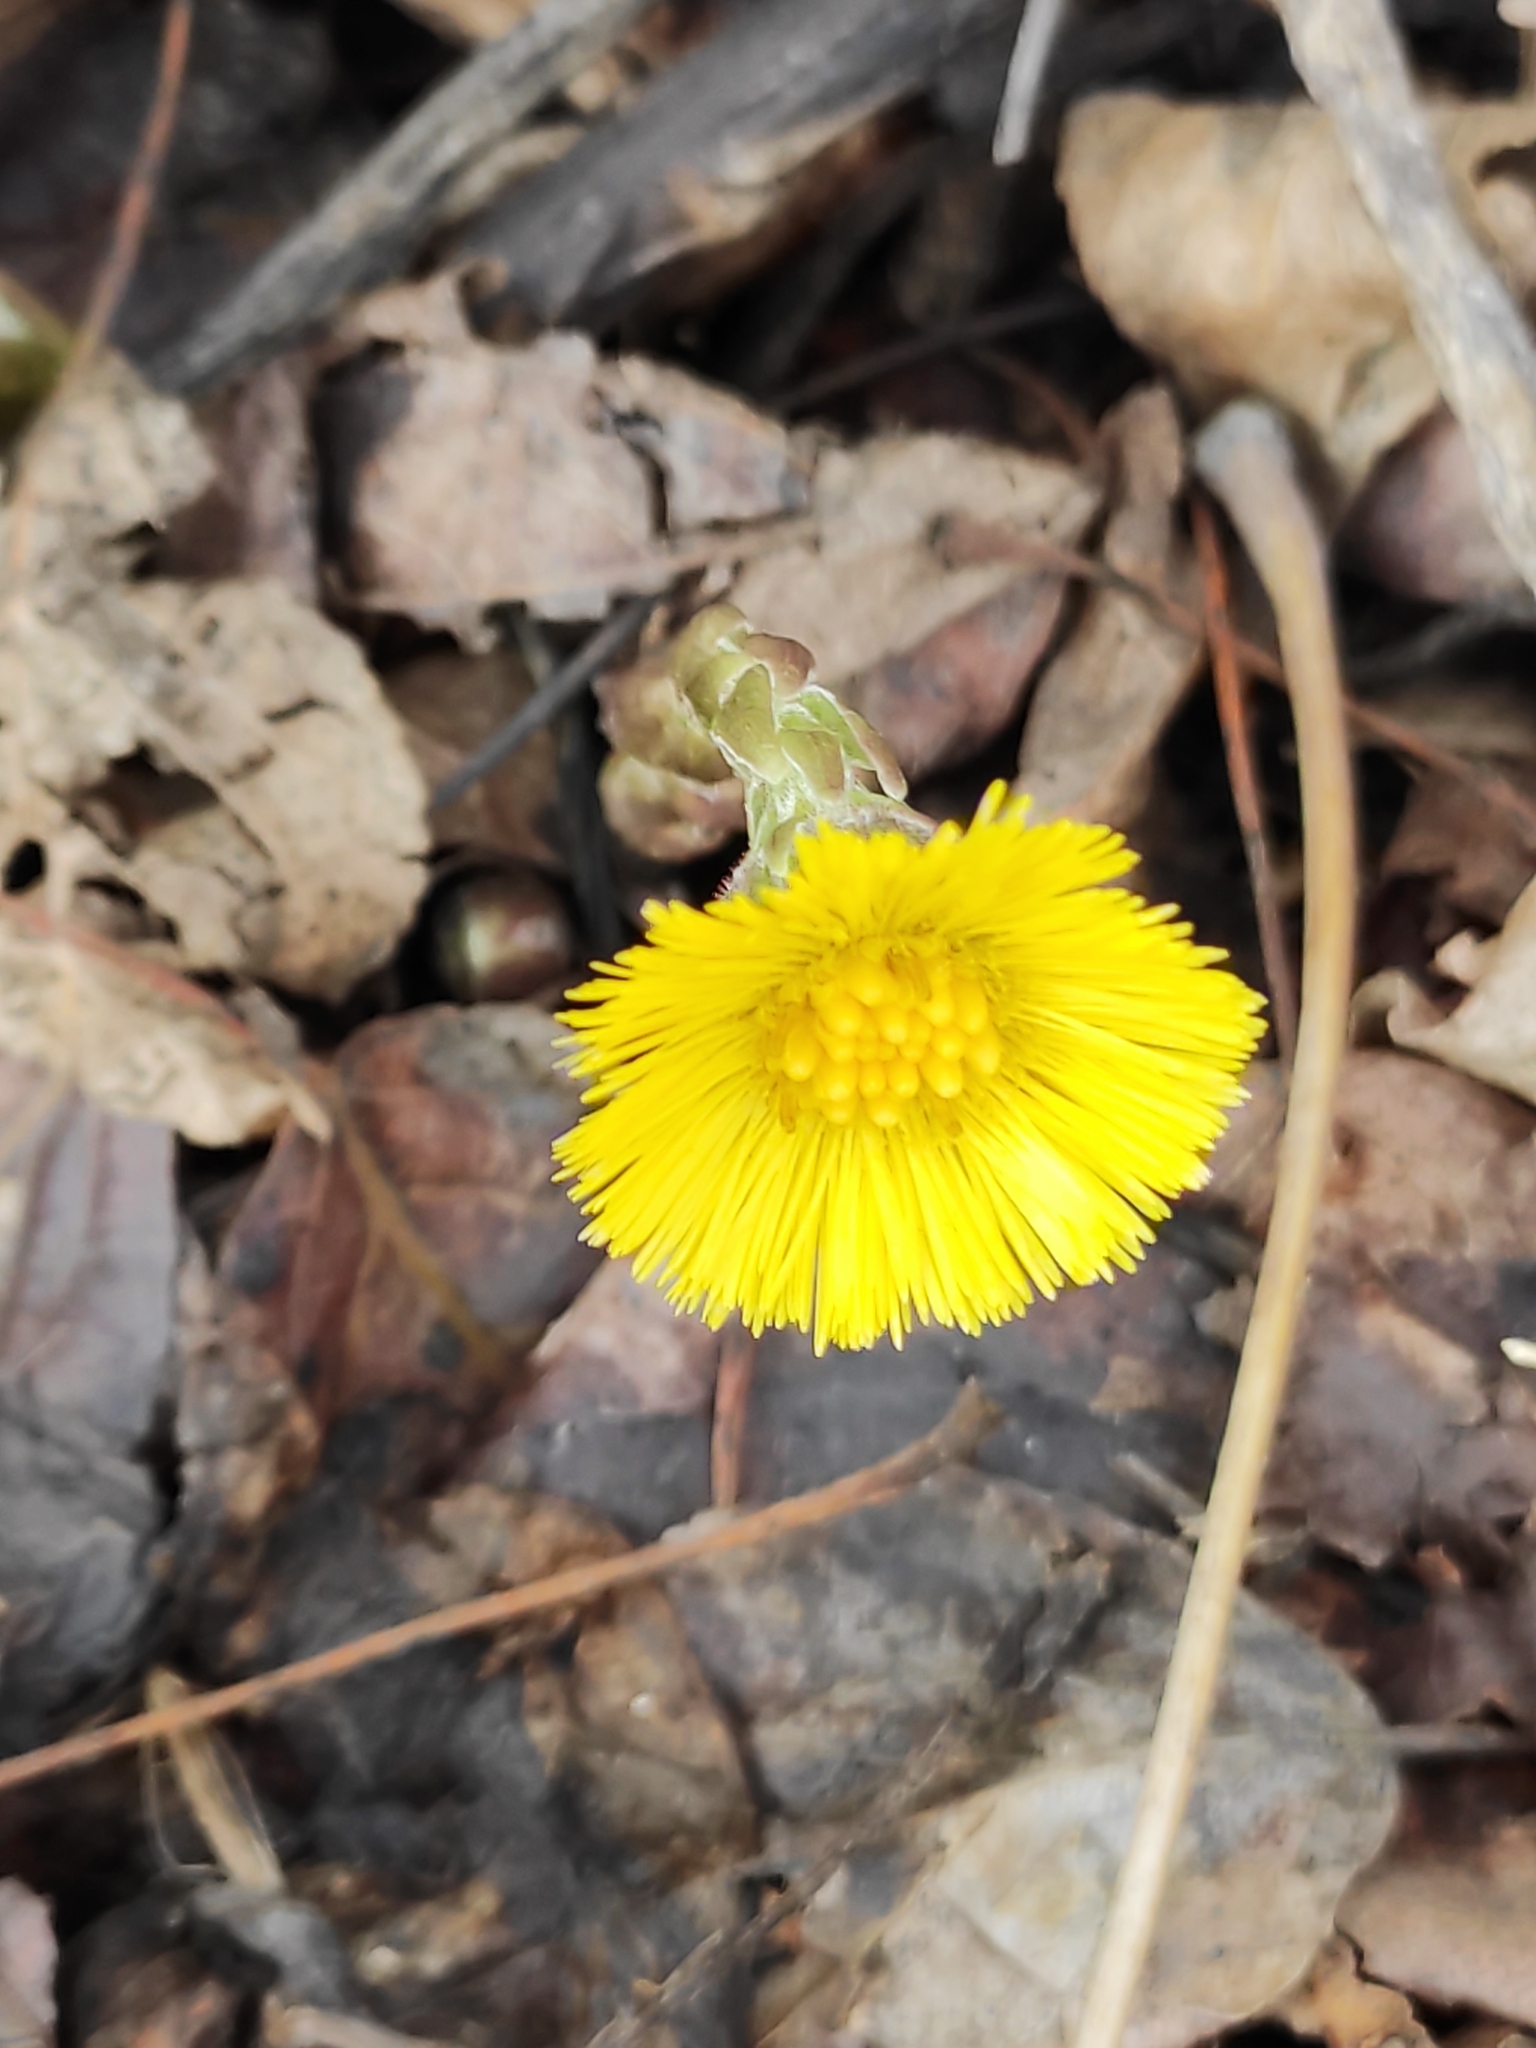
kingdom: Plantae
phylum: Tracheophyta
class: Magnoliopsida
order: Asterales
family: Asteraceae
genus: Tussilago
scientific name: Tussilago farfara
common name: Coltsfoot
